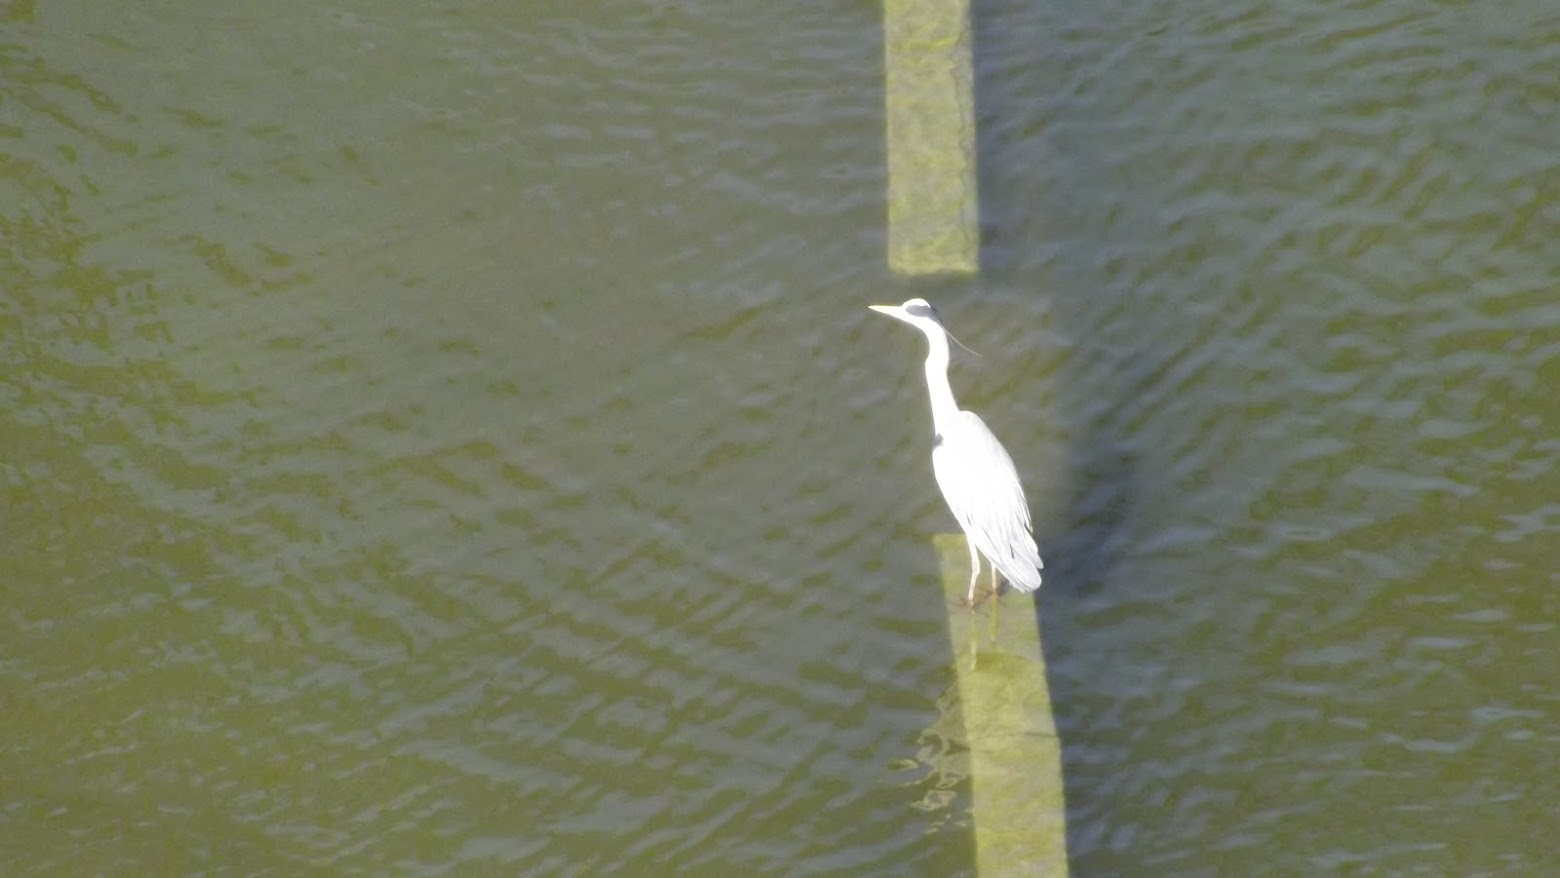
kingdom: Animalia
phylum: Chordata
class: Aves
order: Pelecaniformes
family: Ardeidae
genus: Ardea
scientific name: Ardea cinerea
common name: Grey heron
